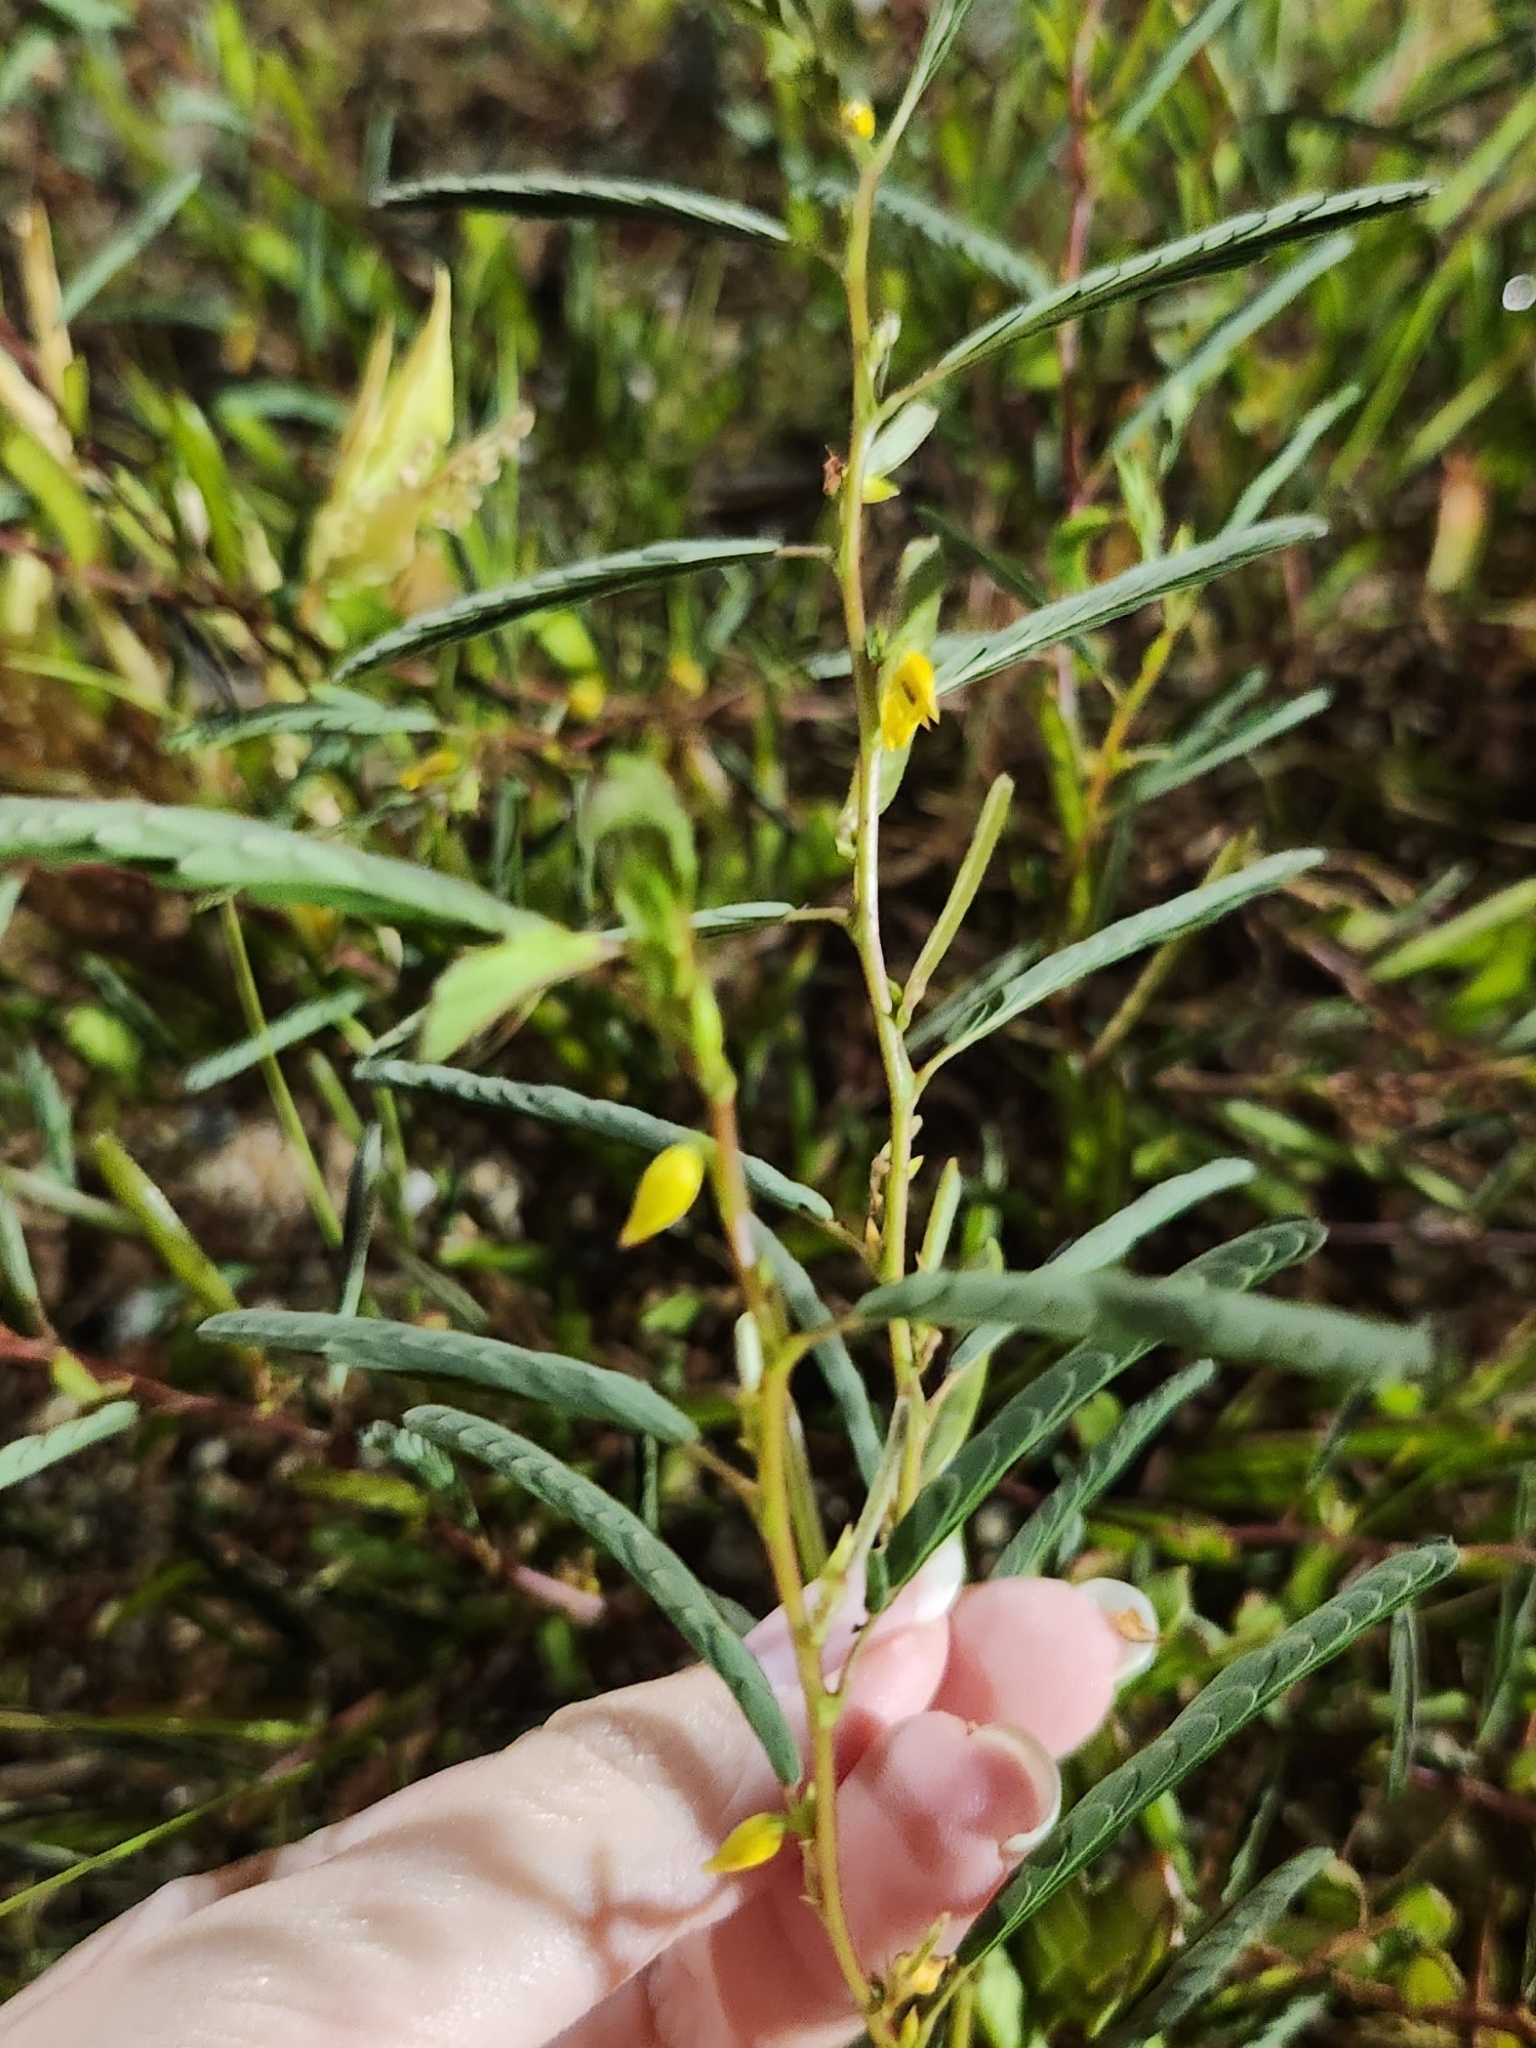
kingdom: Plantae
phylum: Tracheophyta
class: Magnoliopsida
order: Fabales
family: Fabaceae
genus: Chamaecrista
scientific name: Chamaecrista nictitans
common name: Sensitive cassia
